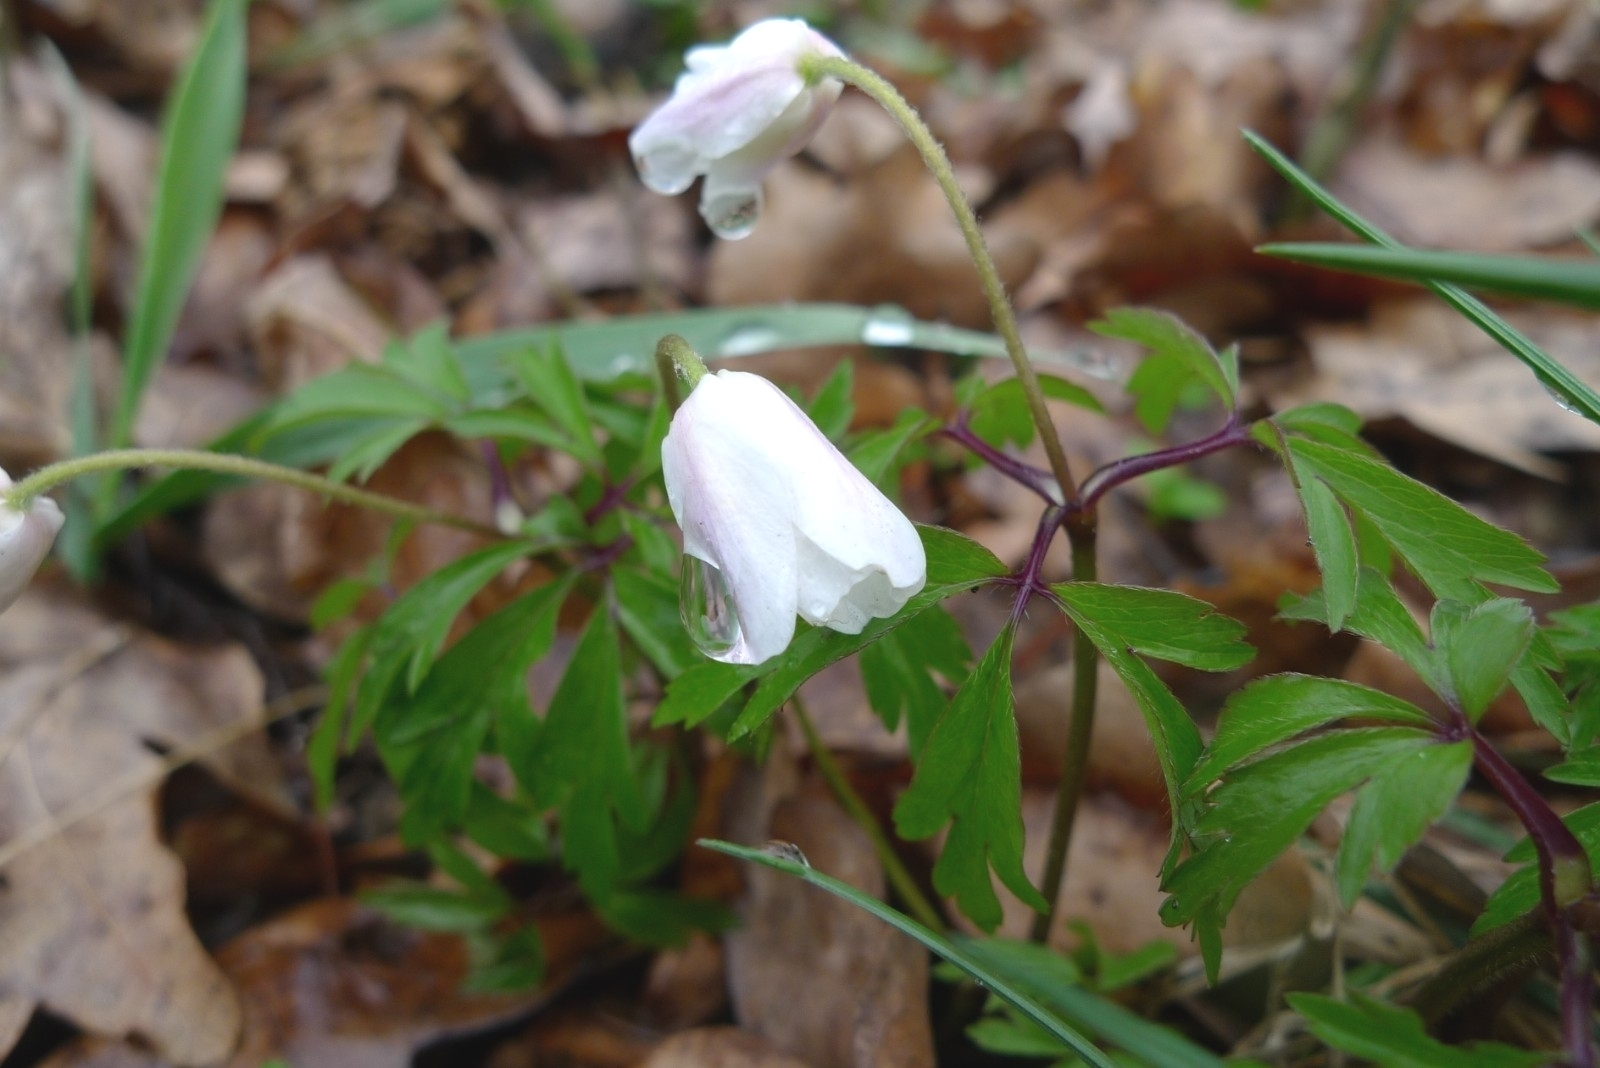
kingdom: Plantae
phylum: Tracheophyta
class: Magnoliopsida
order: Ranunculales
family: Ranunculaceae
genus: Anemone
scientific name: Anemone nemorosa
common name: Wood anemone
